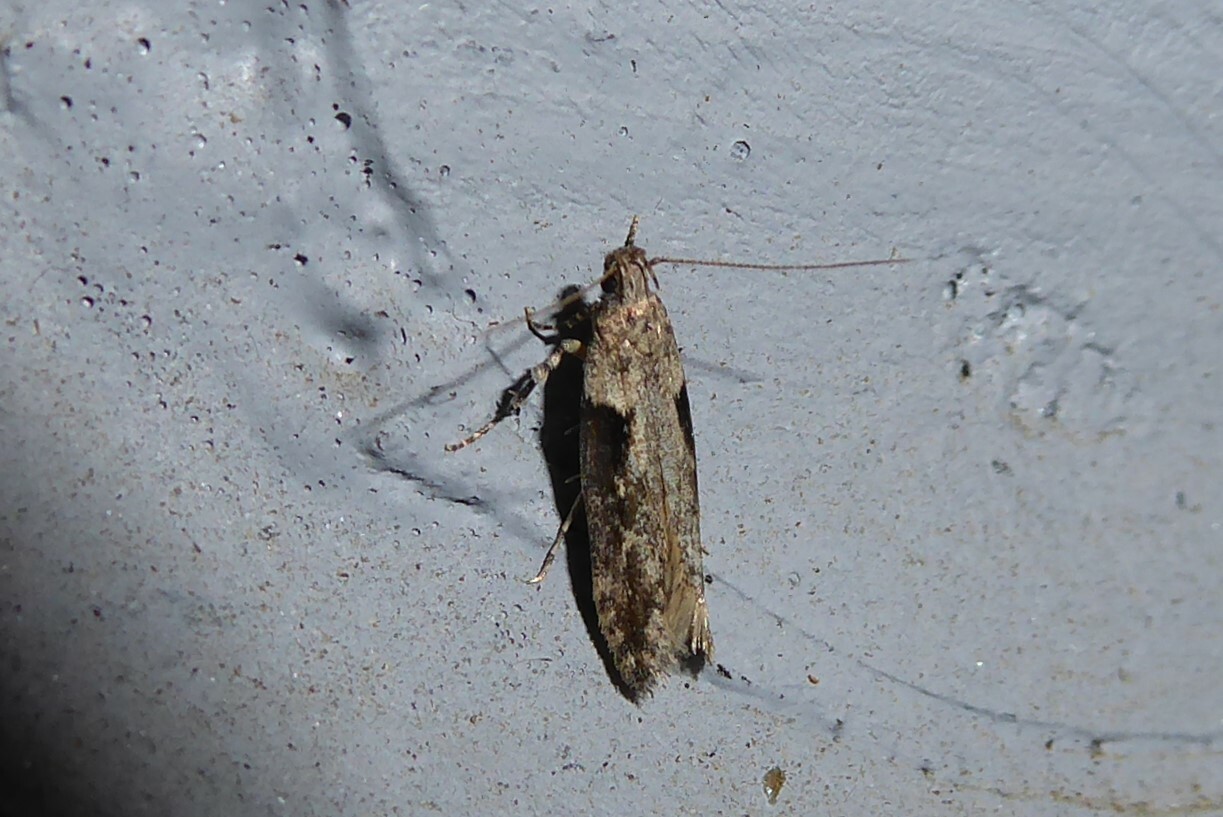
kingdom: Animalia
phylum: Arthropoda
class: Insecta
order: Lepidoptera
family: Gelechiidae
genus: Symmetrischema
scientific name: Symmetrischema tangolias
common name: Moth
